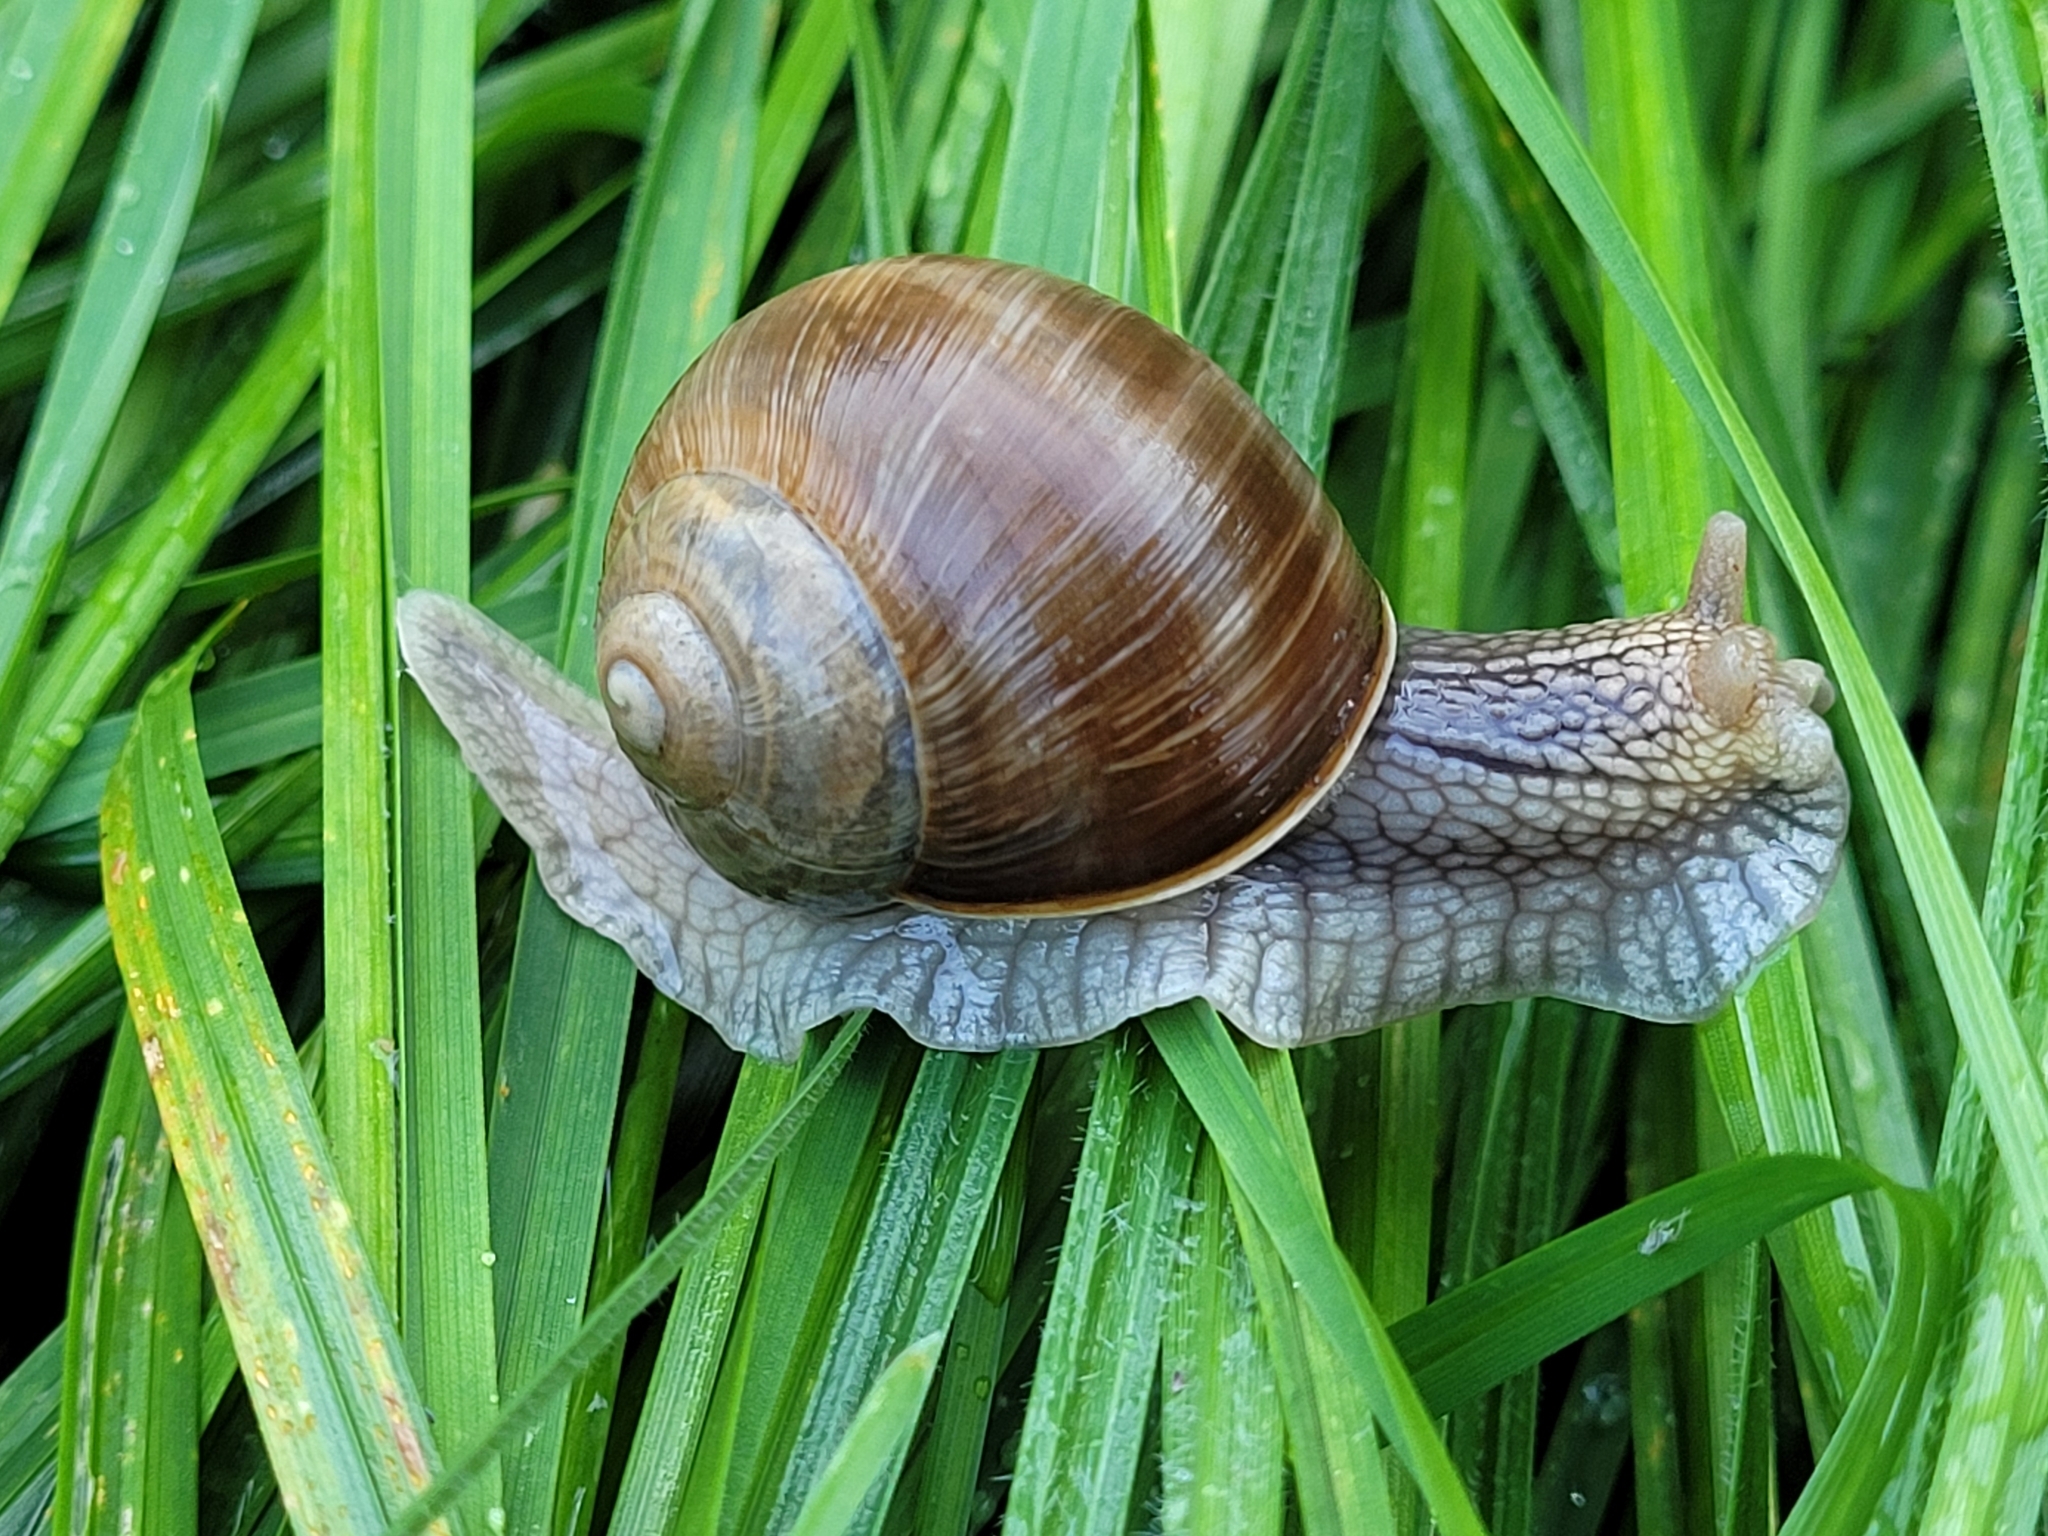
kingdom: Animalia
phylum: Mollusca
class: Gastropoda
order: Stylommatophora
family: Helicidae
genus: Helix
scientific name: Helix pomatia
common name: Roman snail
